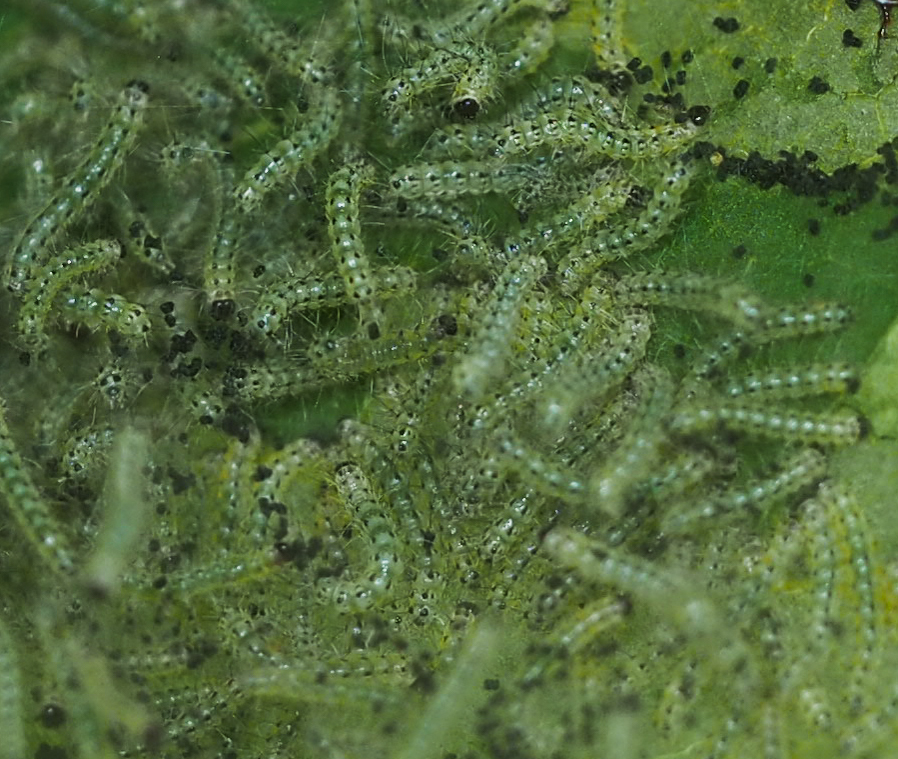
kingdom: Animalia
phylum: Arthropoda
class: Insecta
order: Lepidoptera
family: Erebidae
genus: Hyphantria
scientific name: Hyphantria cunea
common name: American white moth
